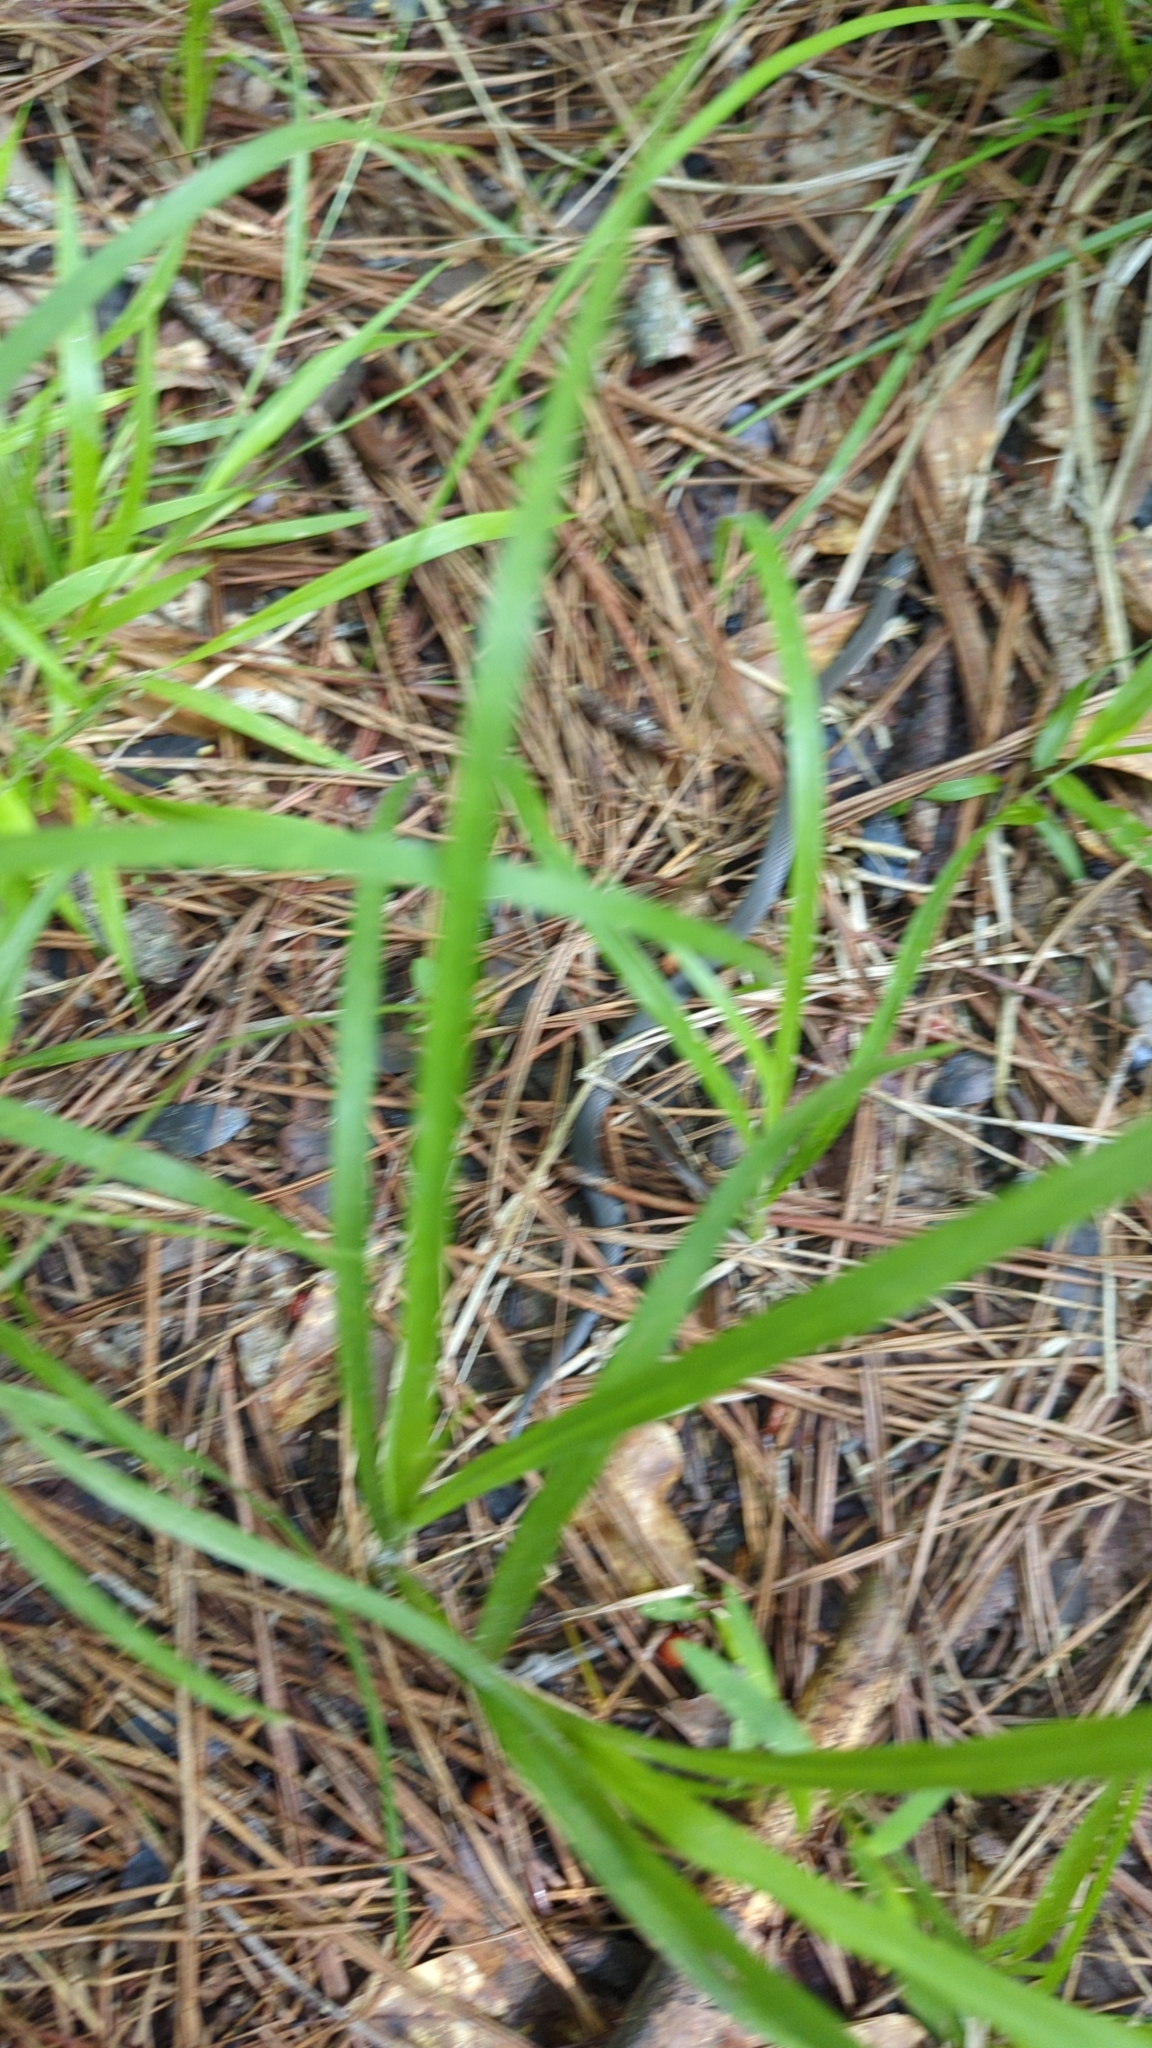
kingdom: Animalia
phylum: Chordata
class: Squamata
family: Colubridae
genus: Diadophis
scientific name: Diadophis punctatus
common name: Ringneck snake
